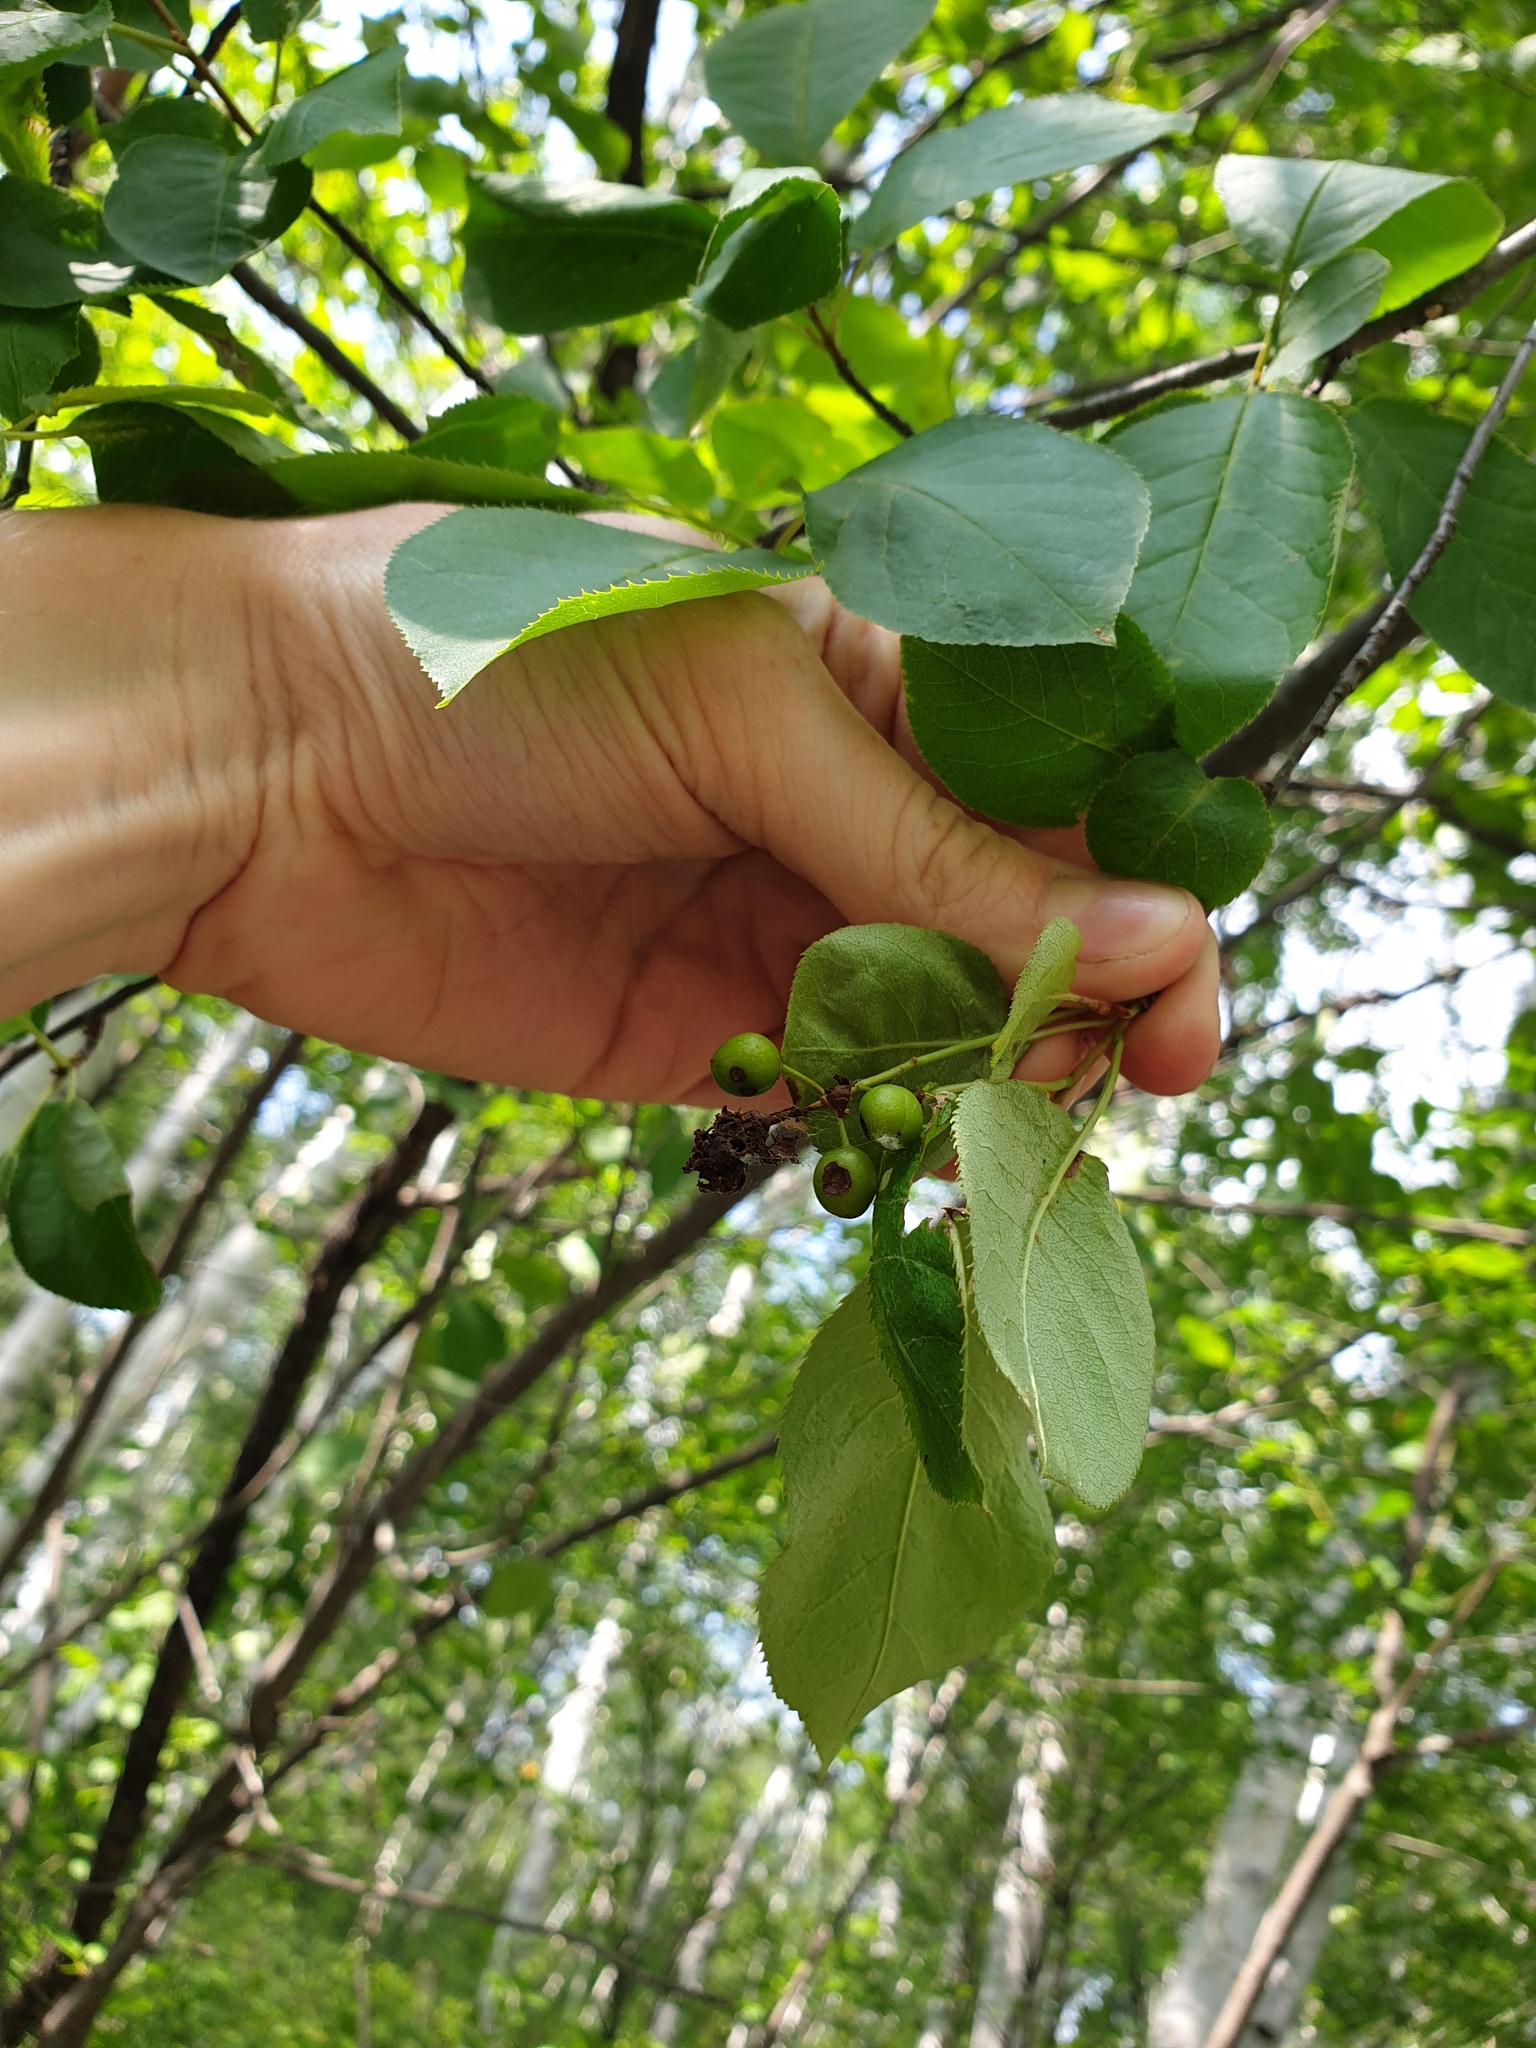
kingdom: Plantae
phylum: Tracheophyta
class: Magnoliopsida
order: Rosales
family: Rosaceae
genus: Prunus
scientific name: Prunus virginiana
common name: Chokecherry
